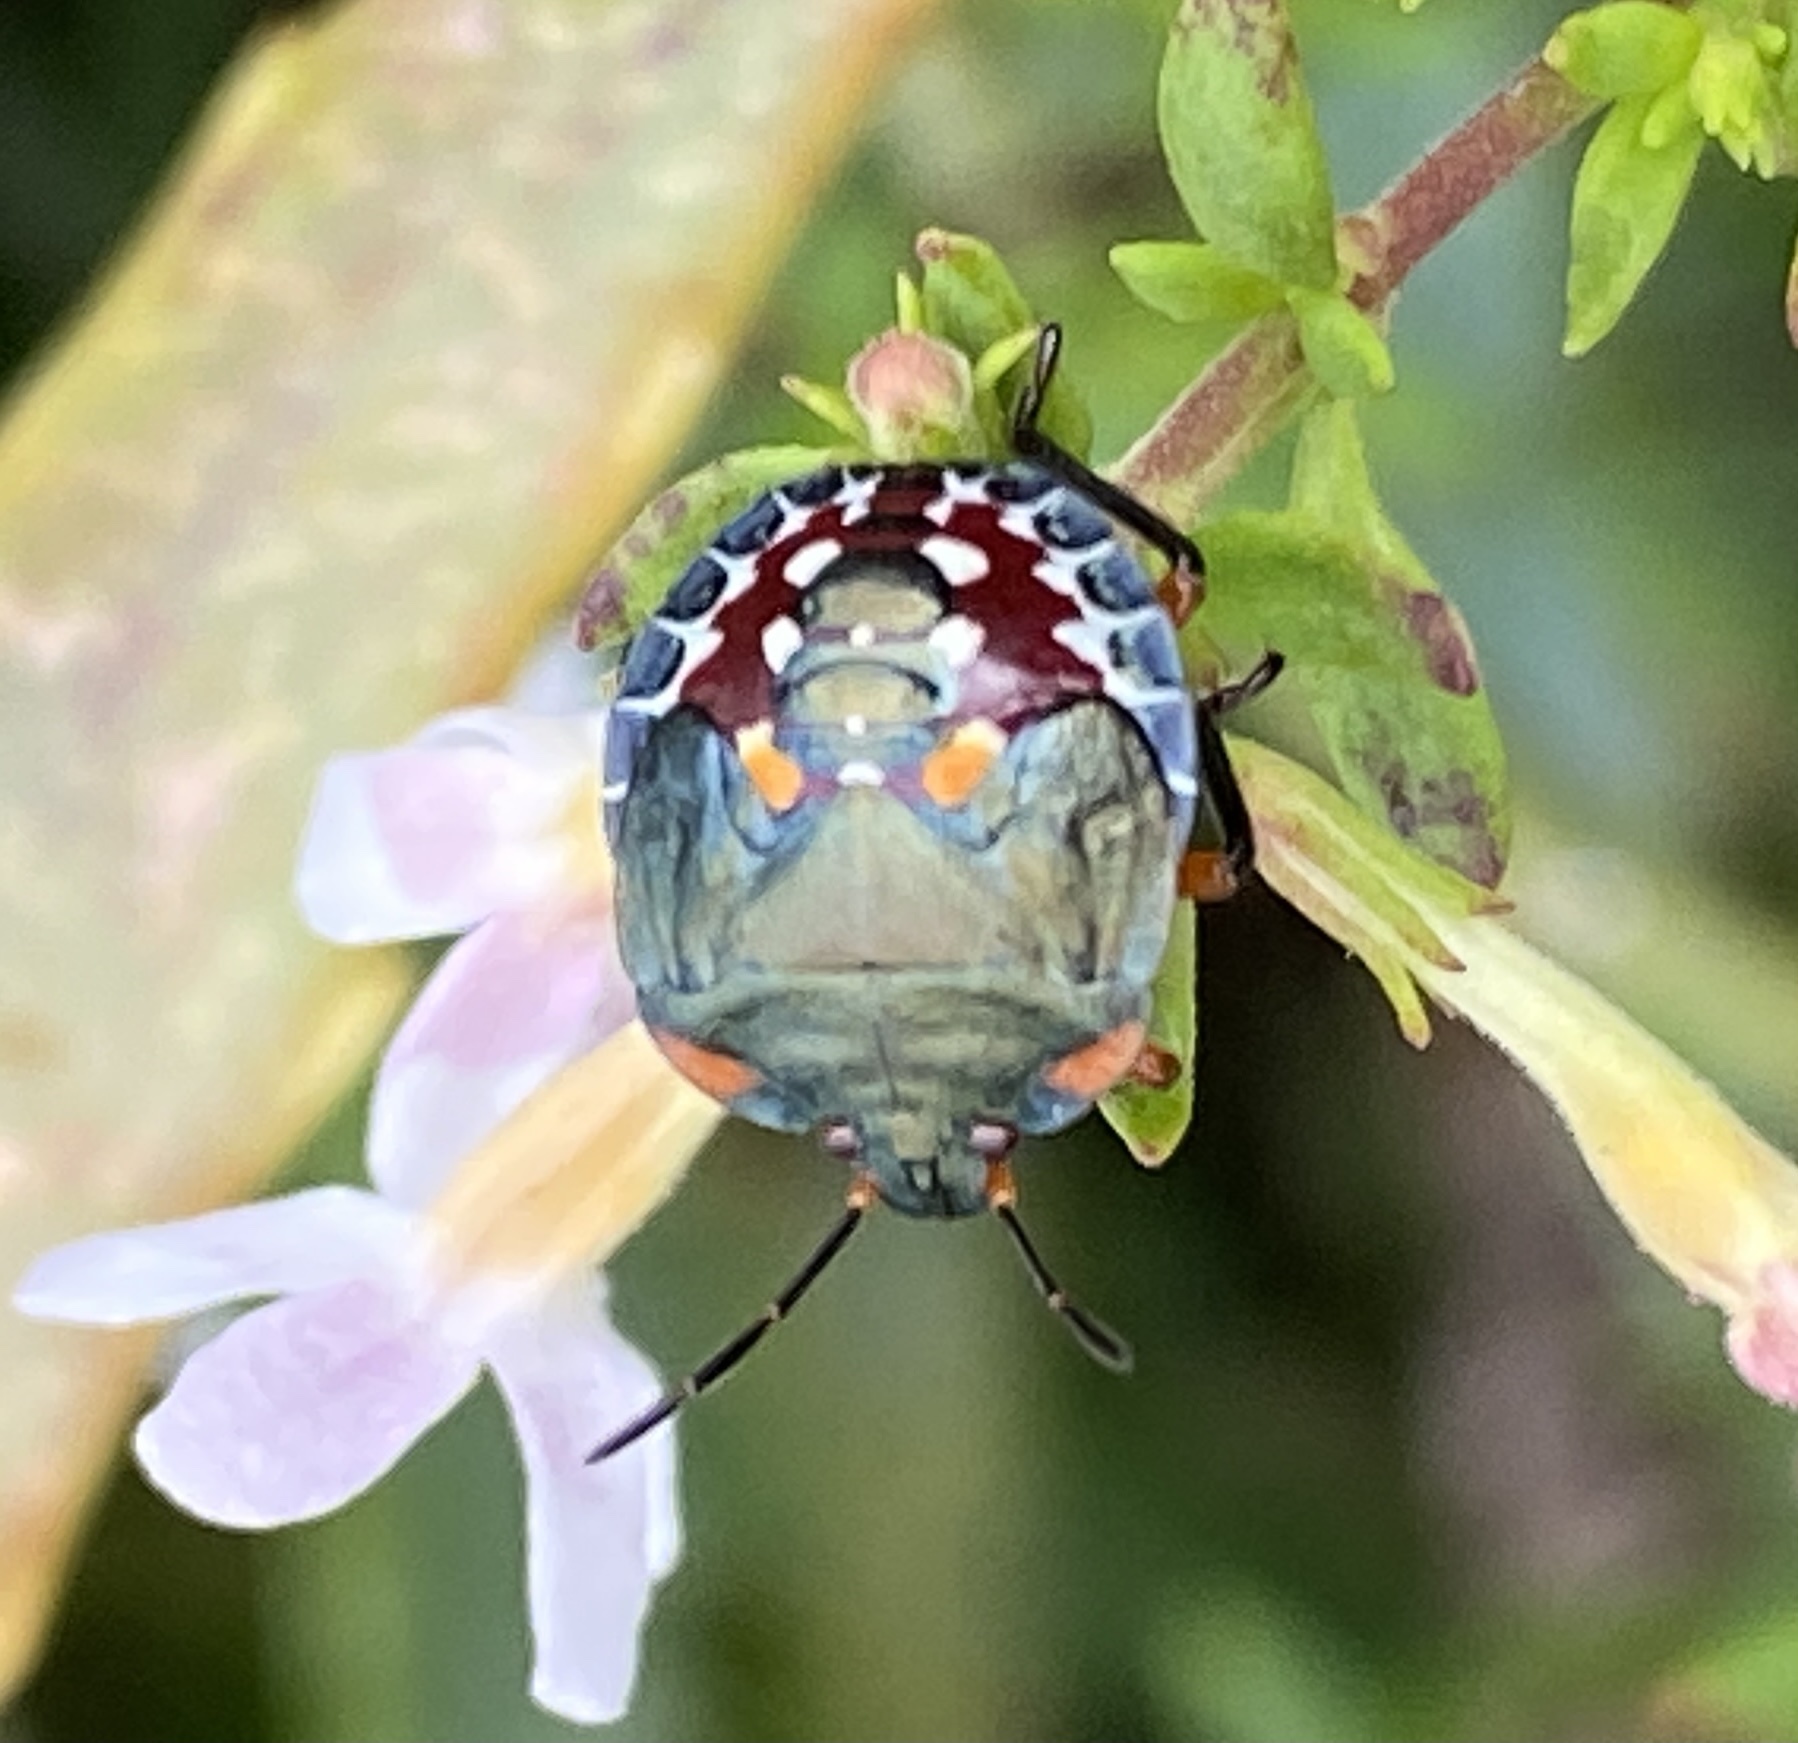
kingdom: Animalia
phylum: Arthropoda
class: Insecta
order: Hemiptera
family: Pentatomidae
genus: Caura
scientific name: Caura rufiventris
